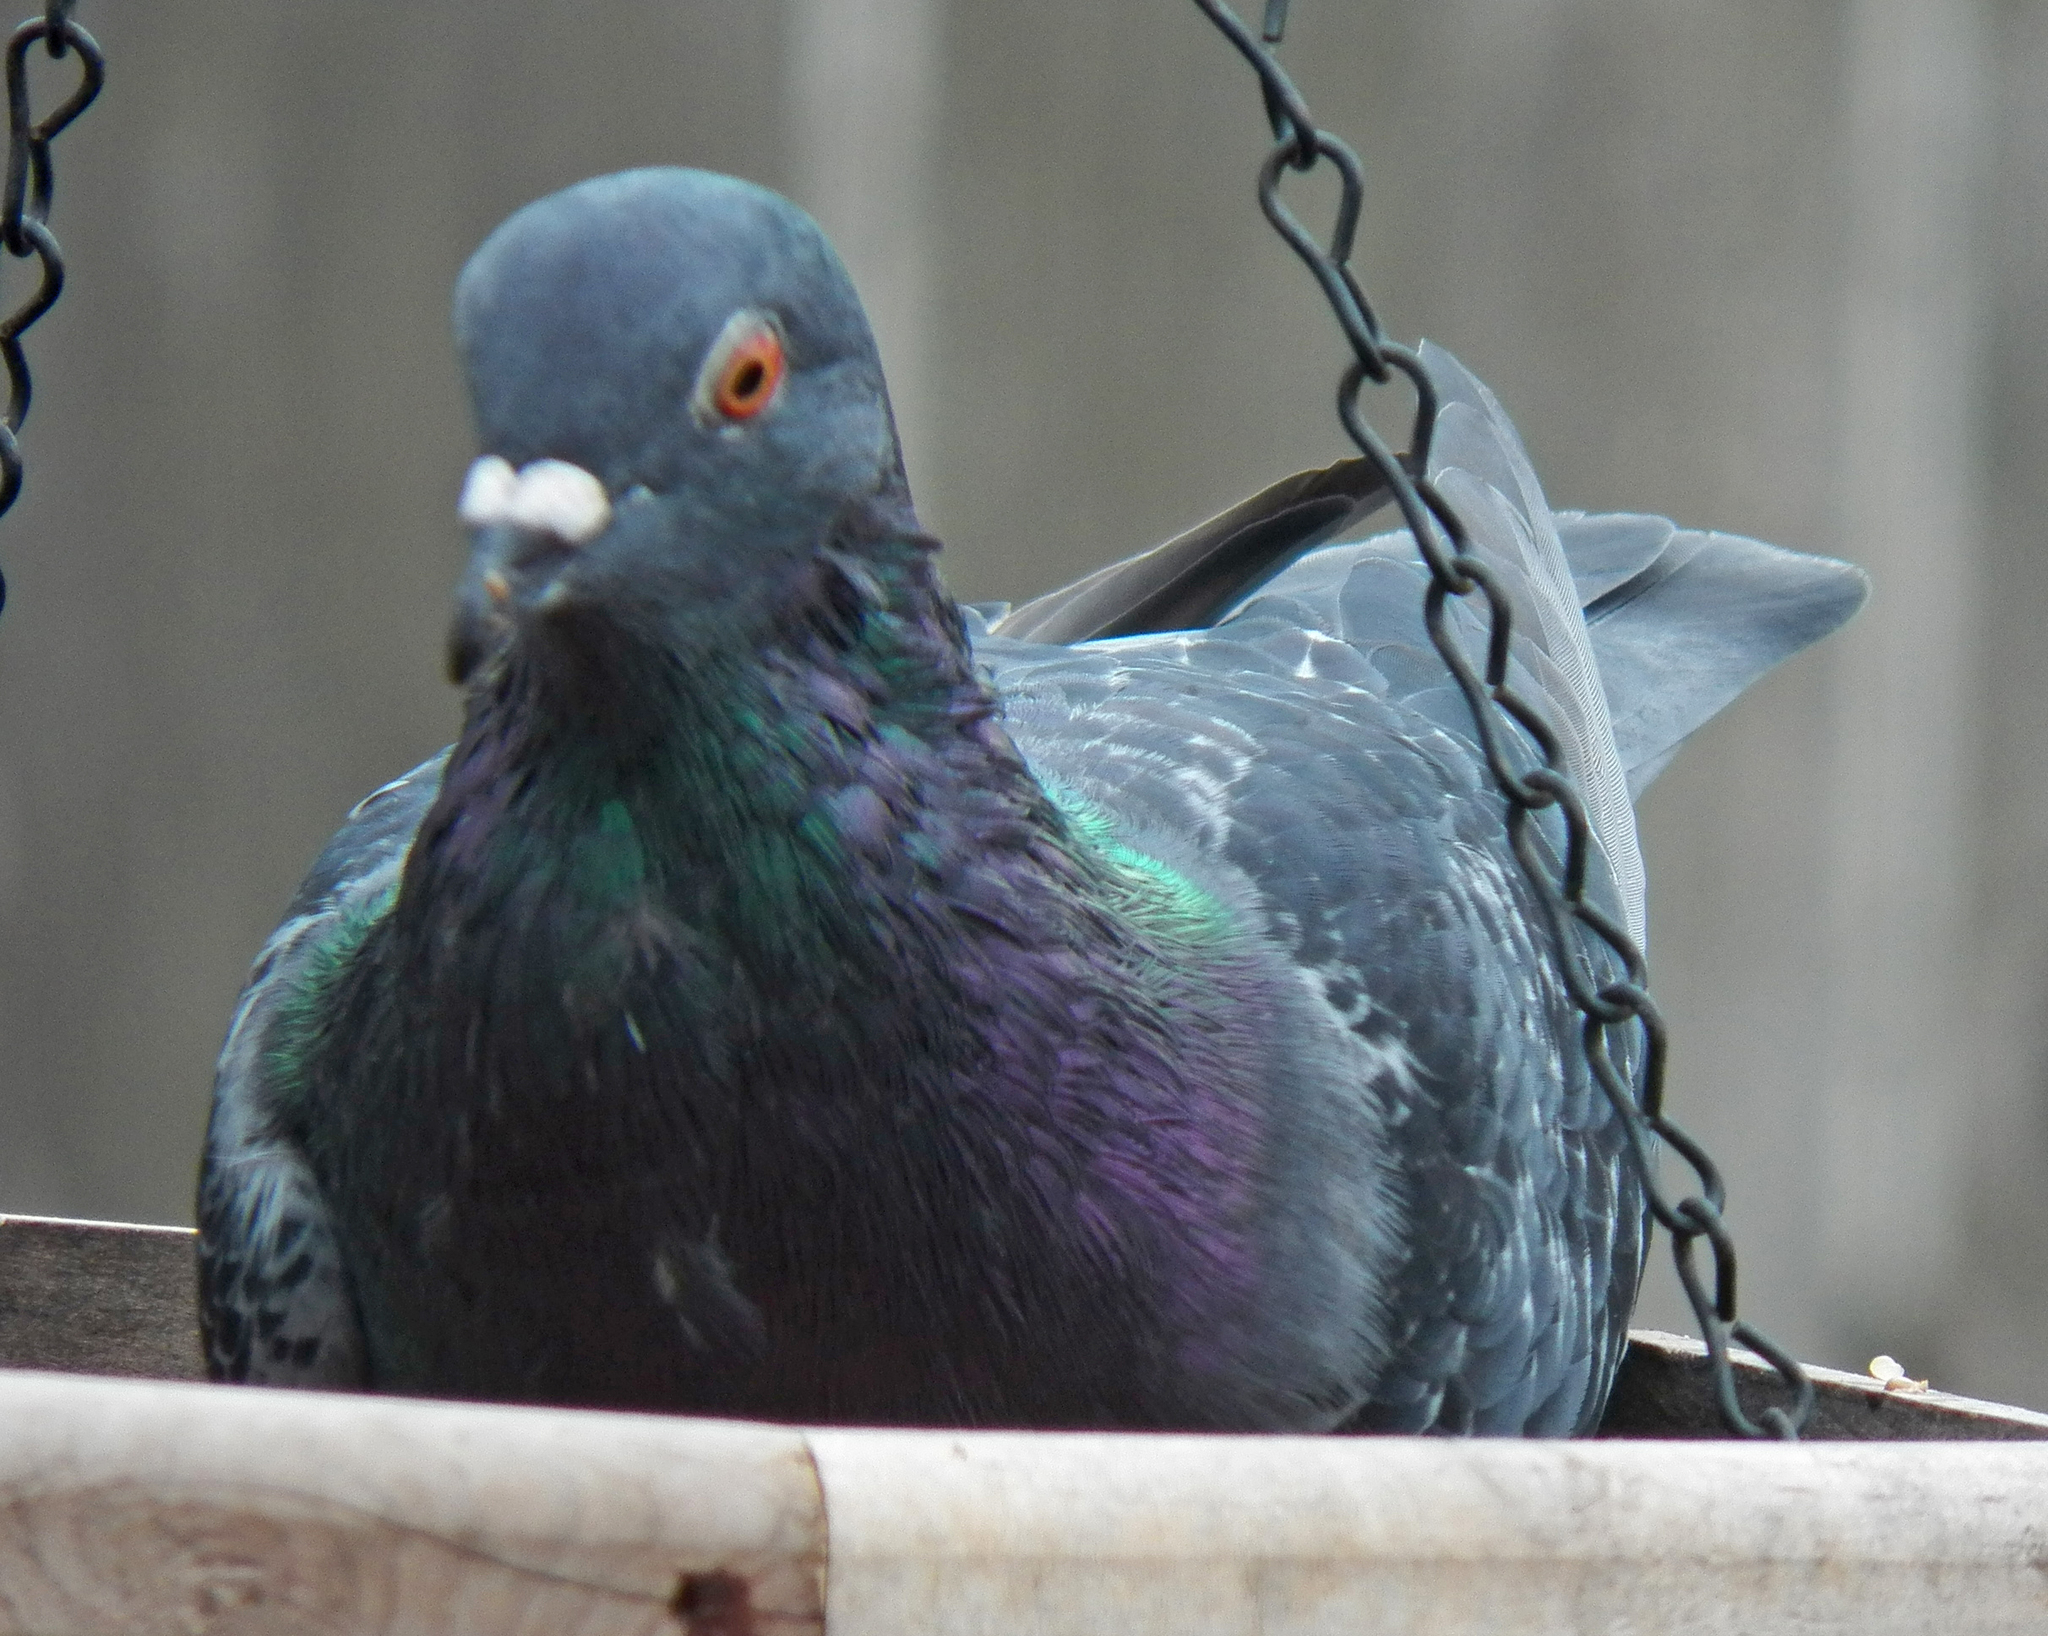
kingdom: Animalia
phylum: Chordata
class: Aves
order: Columbiformes
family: Columbidae
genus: Columba
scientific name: Columba livia
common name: Rock pigeon
